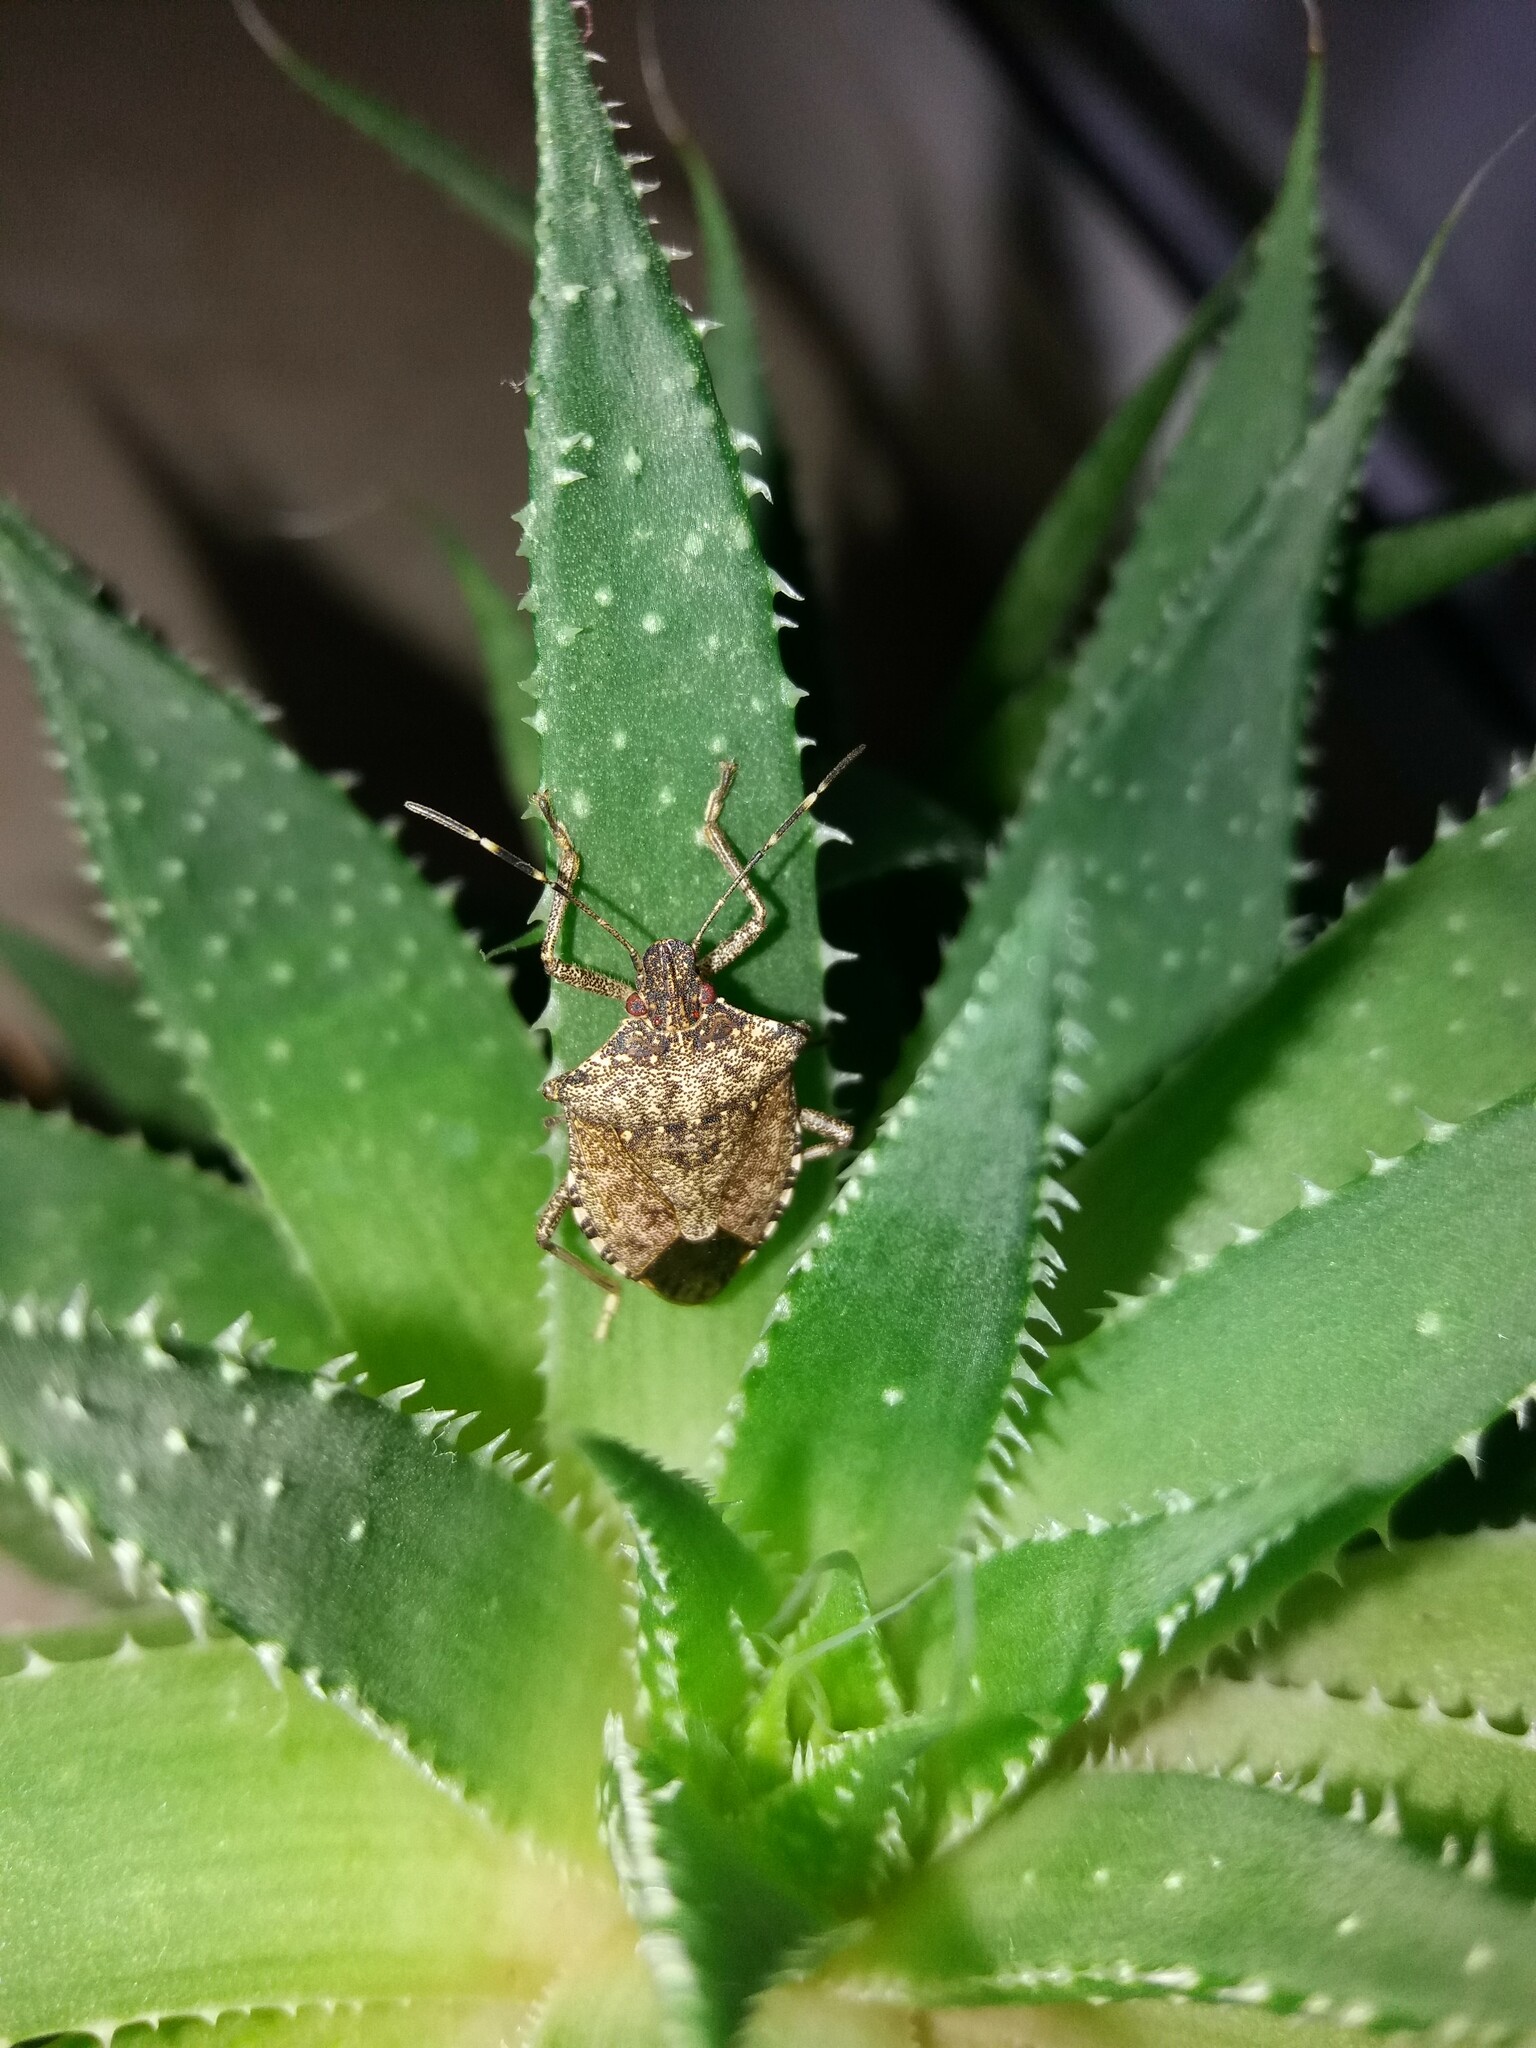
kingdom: Animalia
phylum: Arthropoda
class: Insecta
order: Hemiptera
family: Pentatomidae
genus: Halyomorpha
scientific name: Halyomorpha halys
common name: Brown marmorated stink bug
